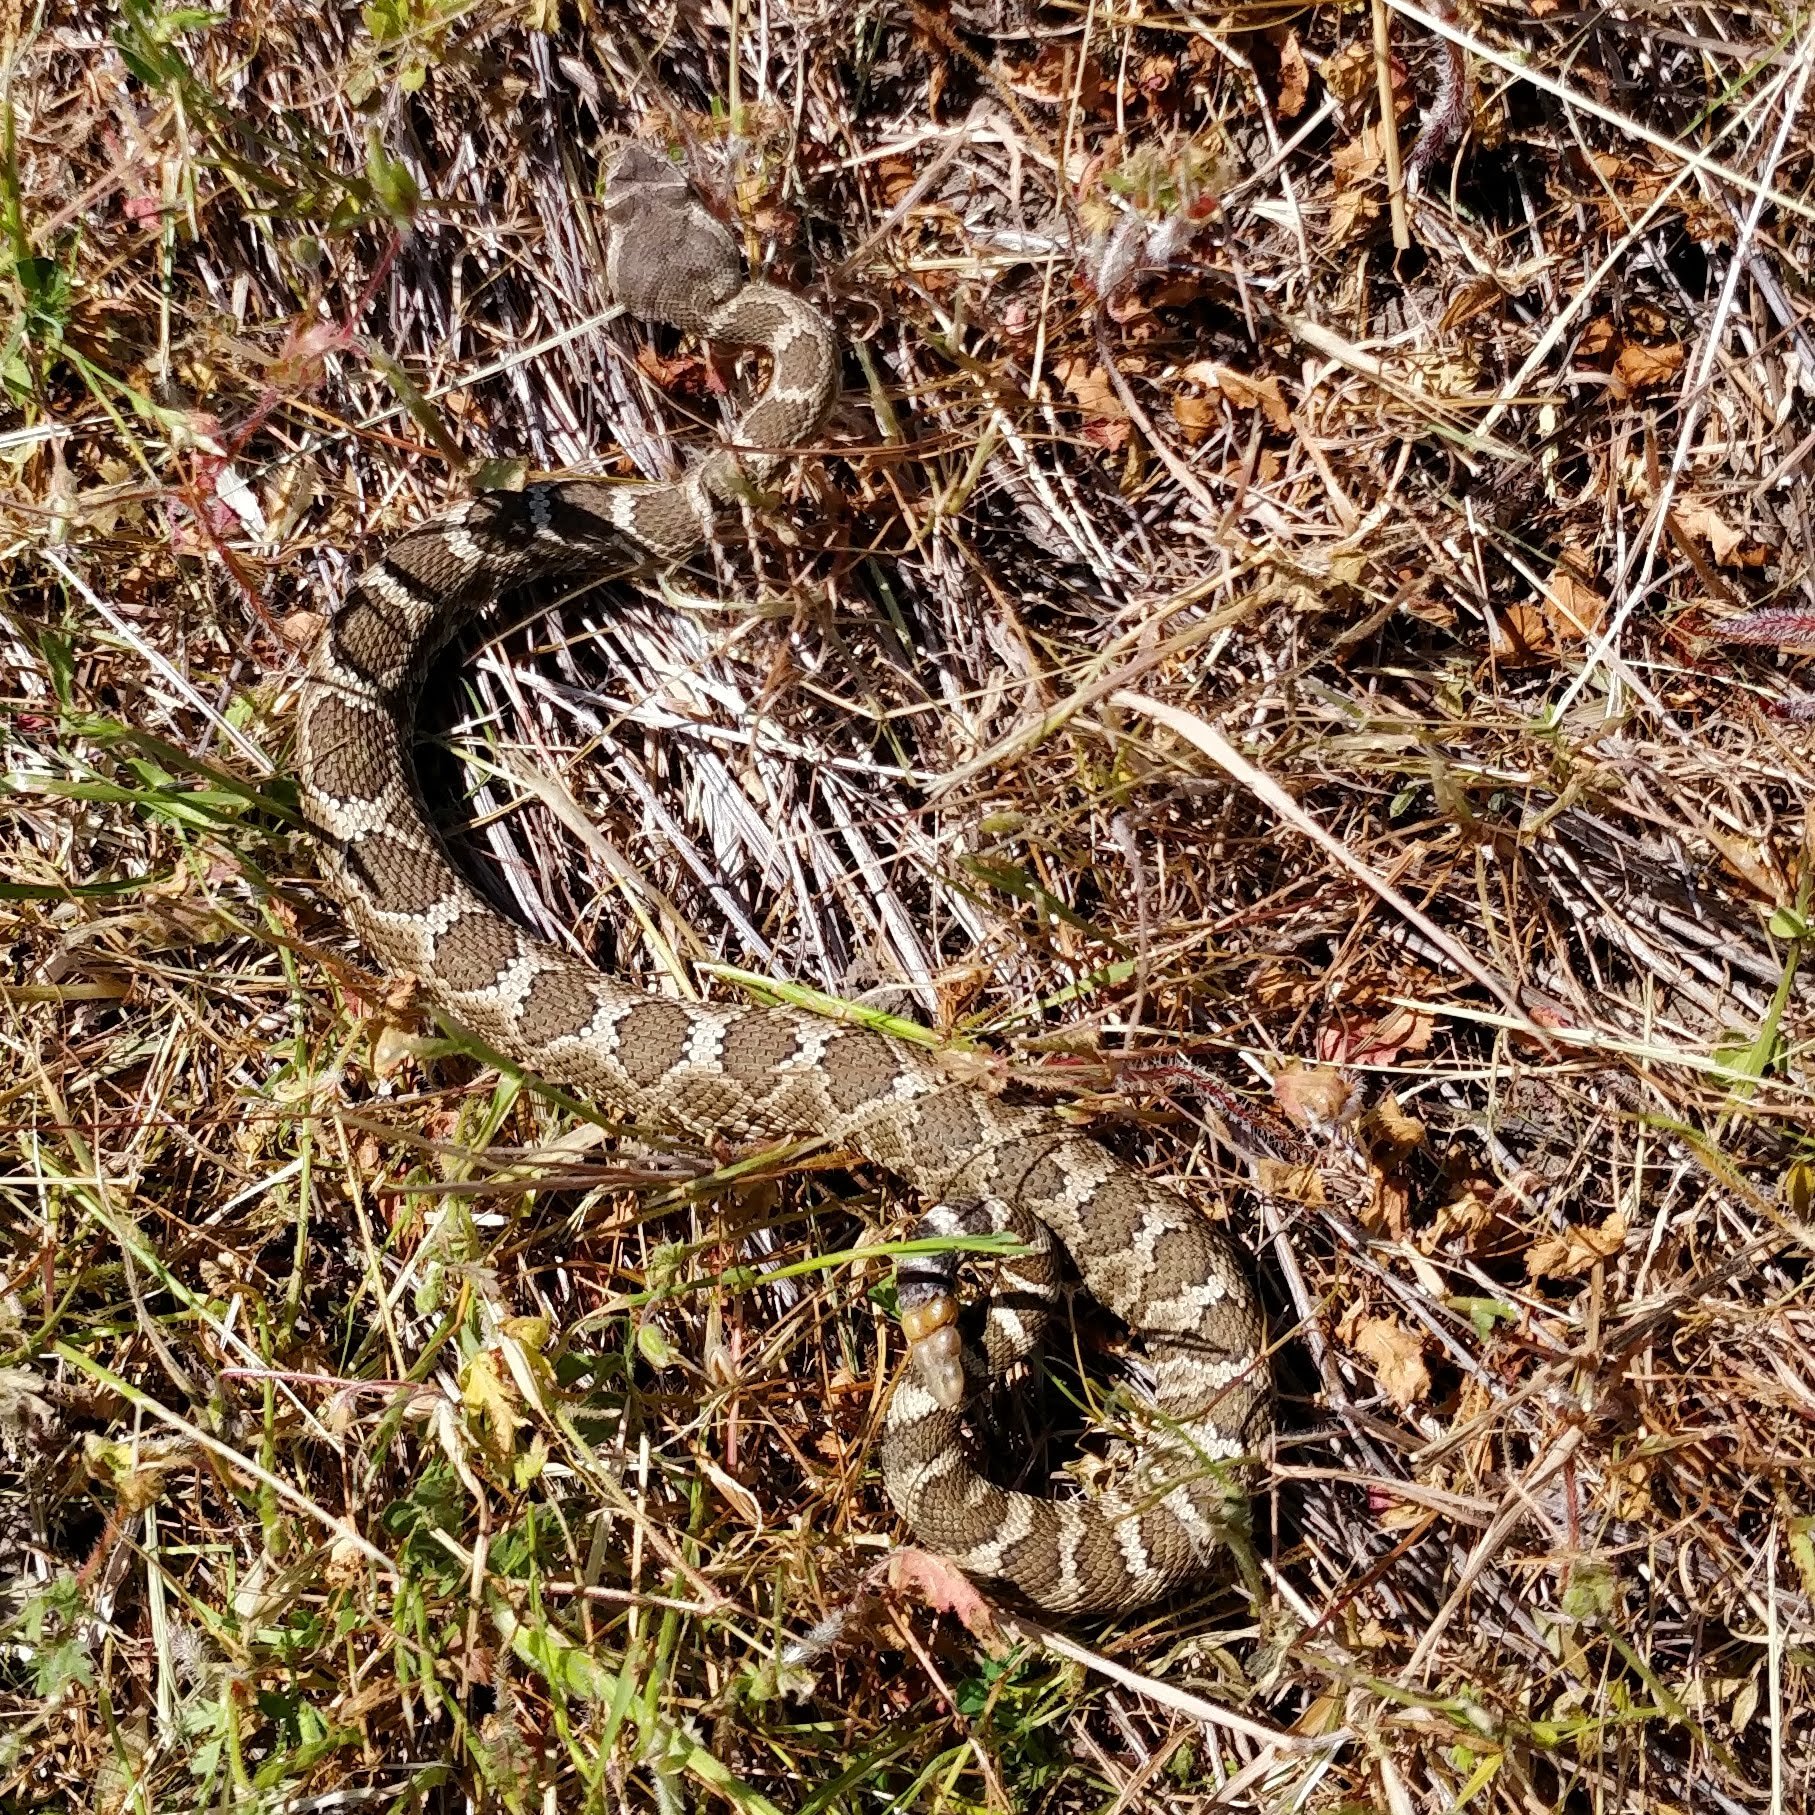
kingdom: Animalia
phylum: Chordata
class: Squamata
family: Viperidae
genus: Crotalus
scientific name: Crotalus oreganus
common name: Abyssus
